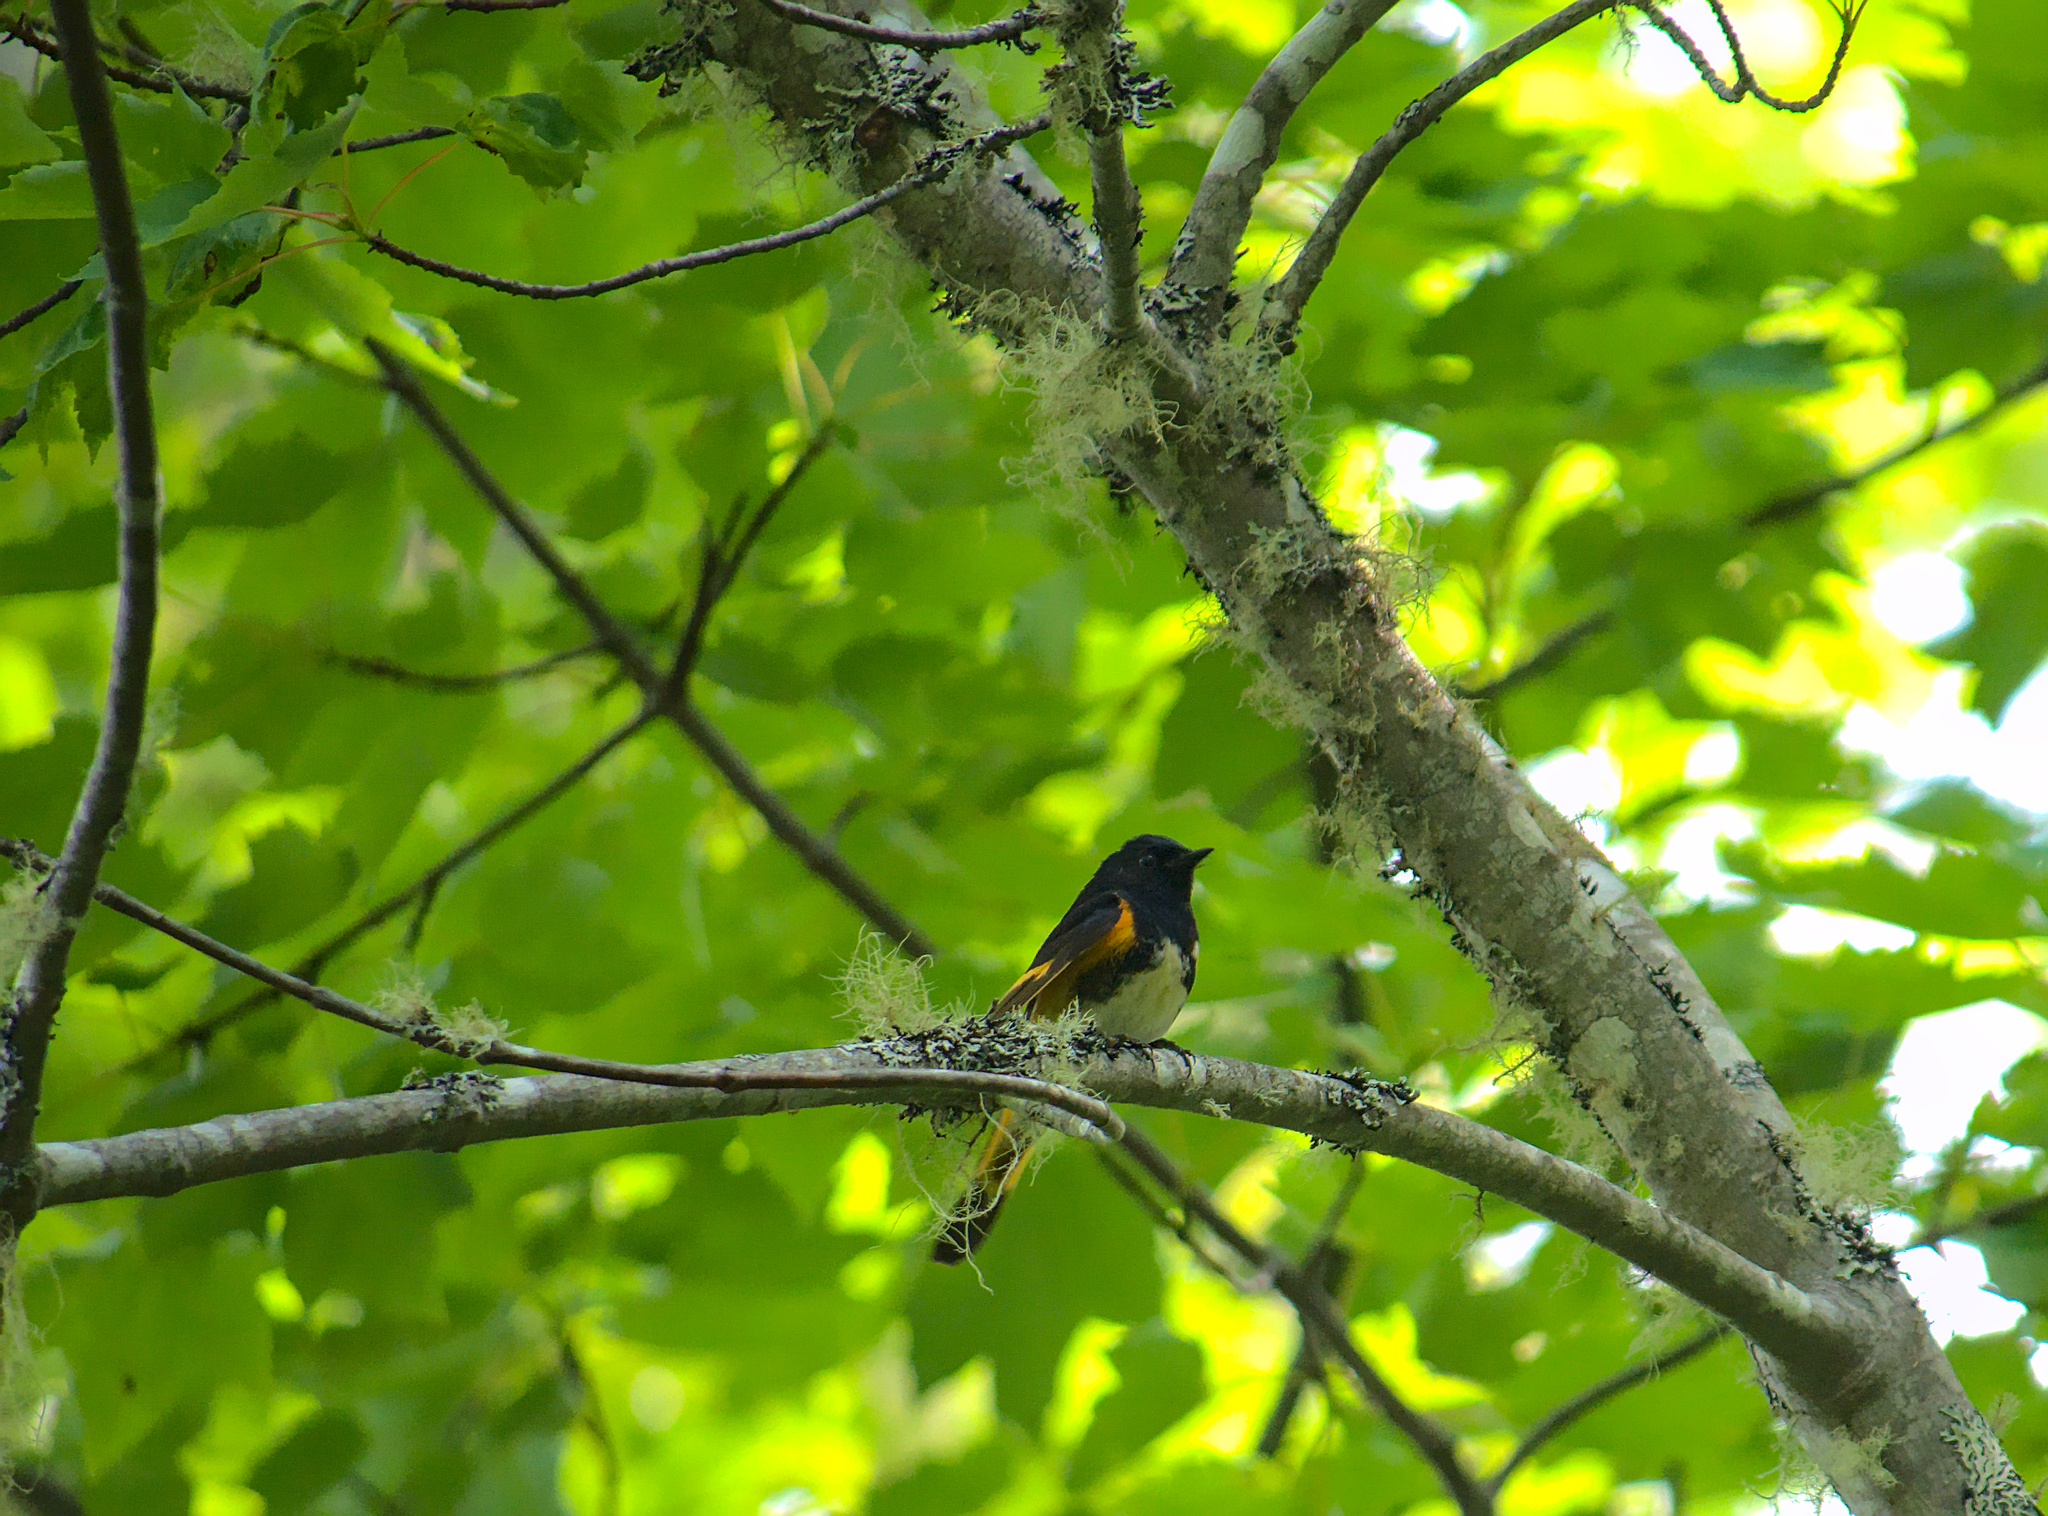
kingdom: Animalia
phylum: Chordata
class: Aves
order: Passeriformes
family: Parulidae
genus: Setophaga
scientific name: Setophaga ruticilla
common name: American redstart
